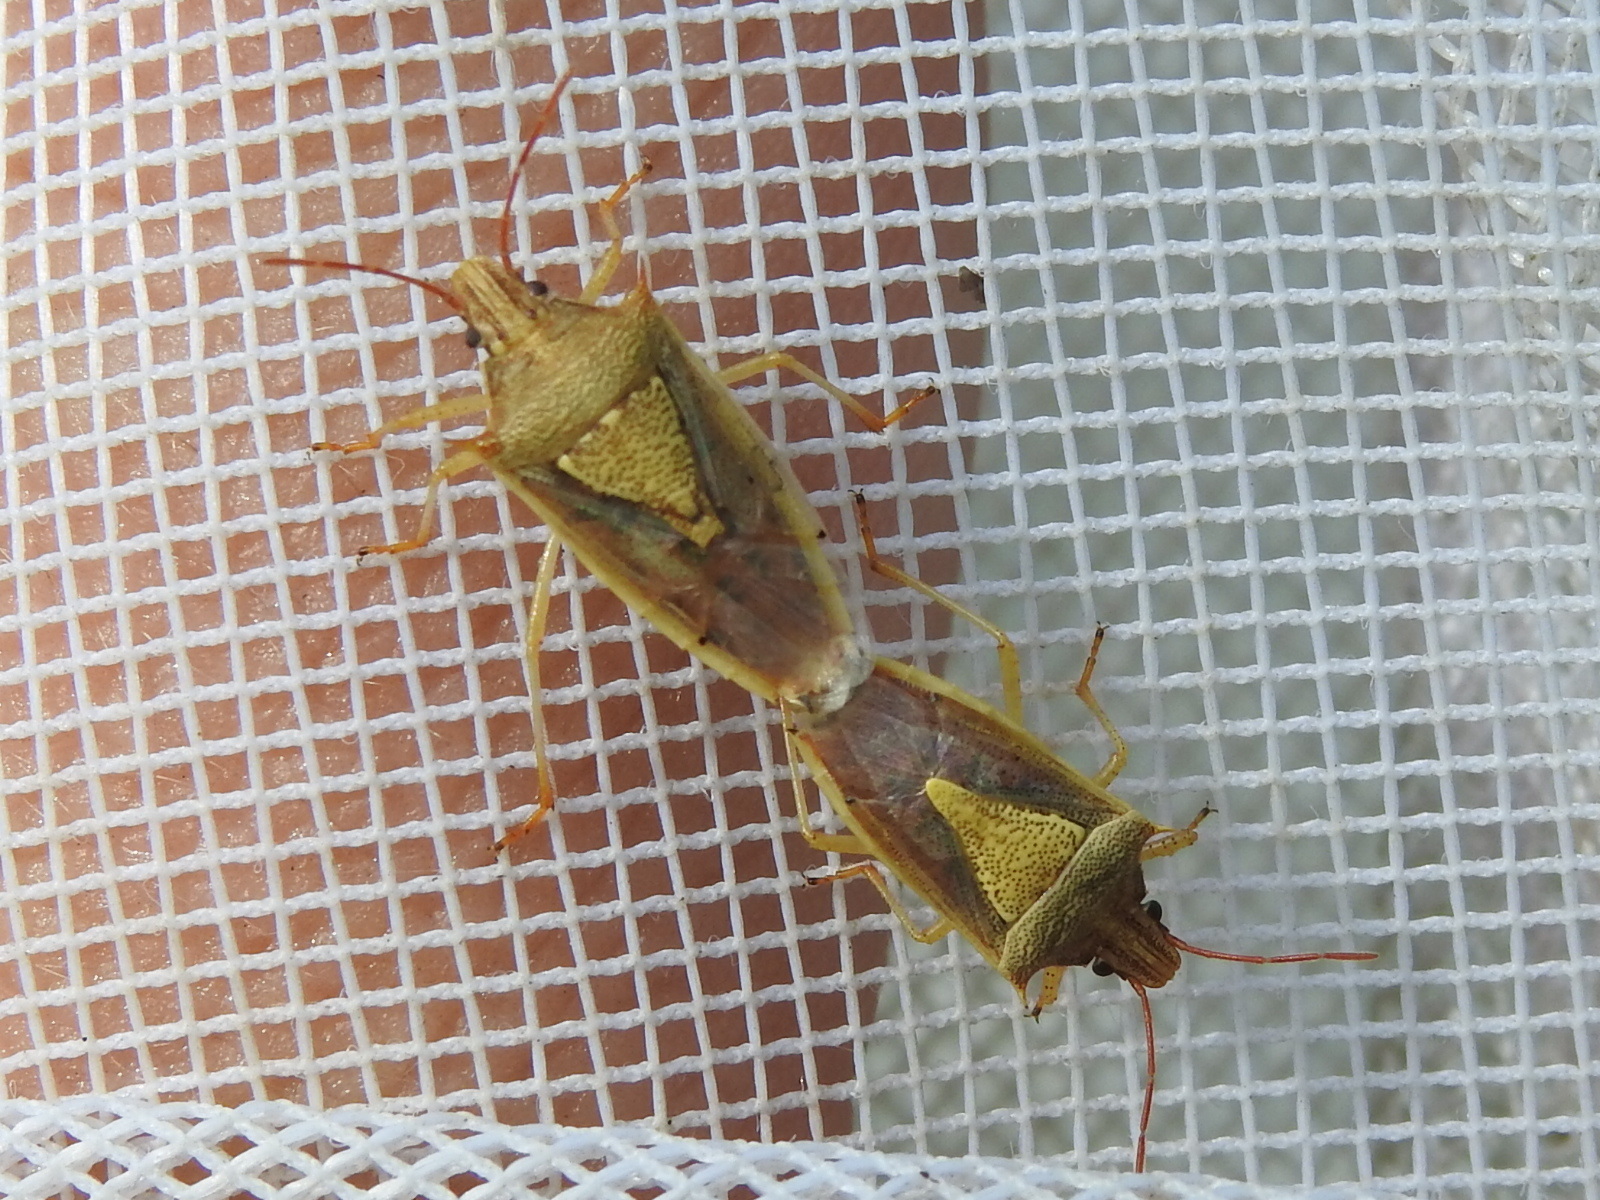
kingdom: Animalia
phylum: Arthropoda
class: Insecta
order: Hemiptera
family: Pentatomidae
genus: Oebalus
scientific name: Oebalus pugnax
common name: Rice stink bug
